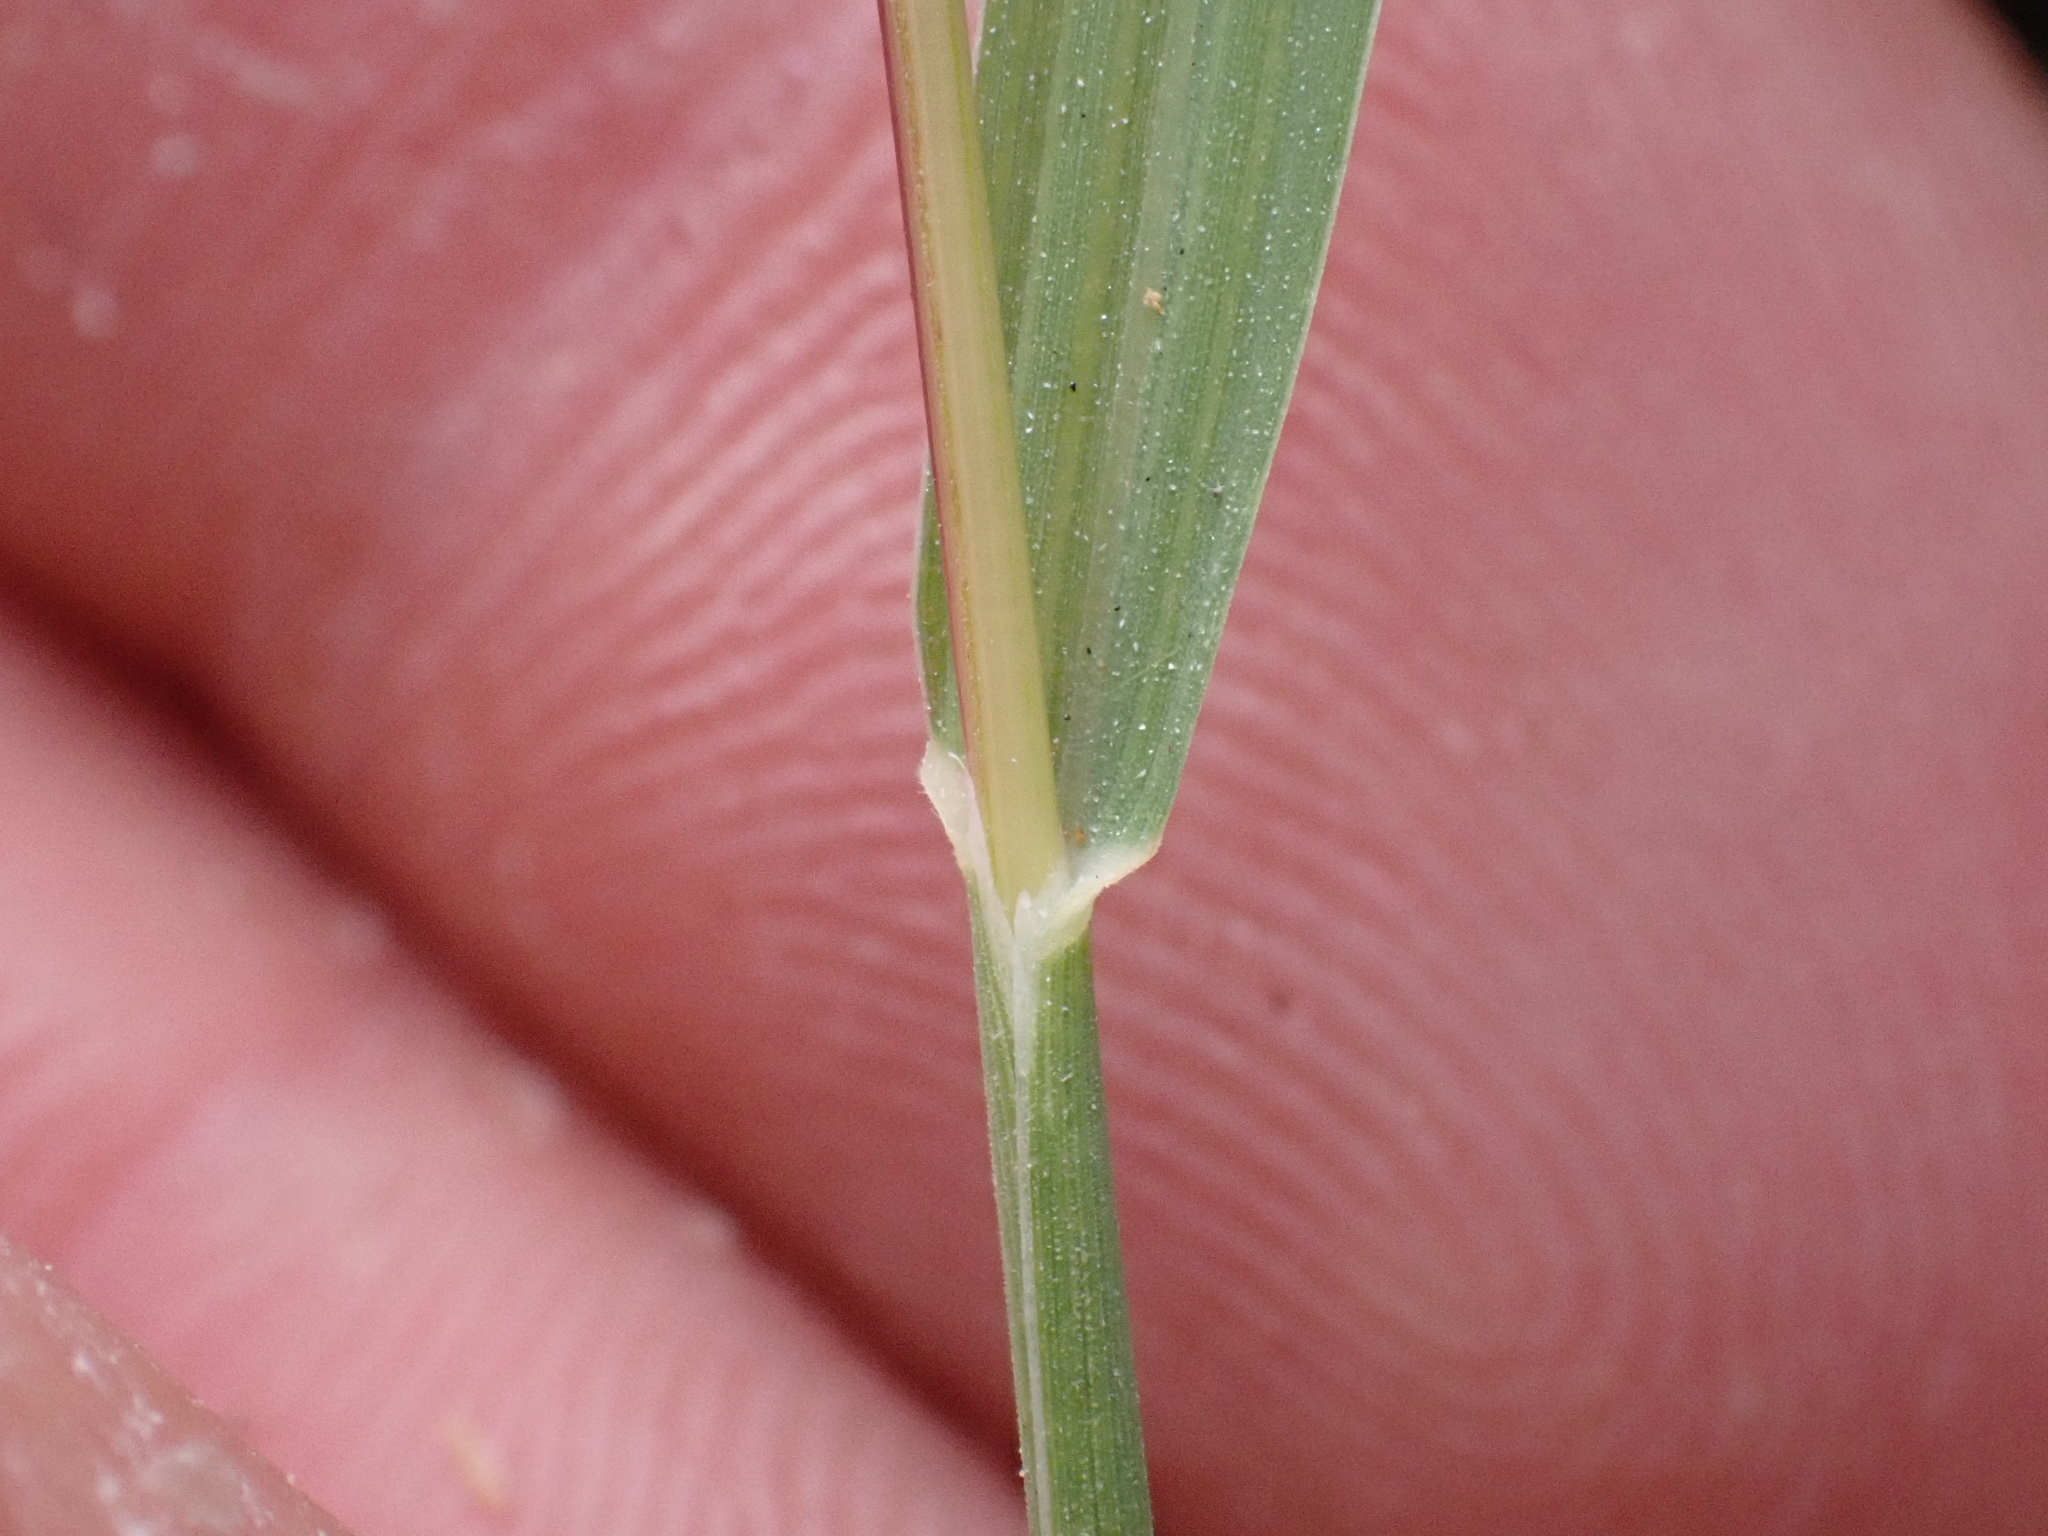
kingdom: Plantae
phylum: Tracheophyta
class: Liliopsida
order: Poales
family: Poaceae
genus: Gastridium
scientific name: Gastridium phleoides
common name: Nit grass
